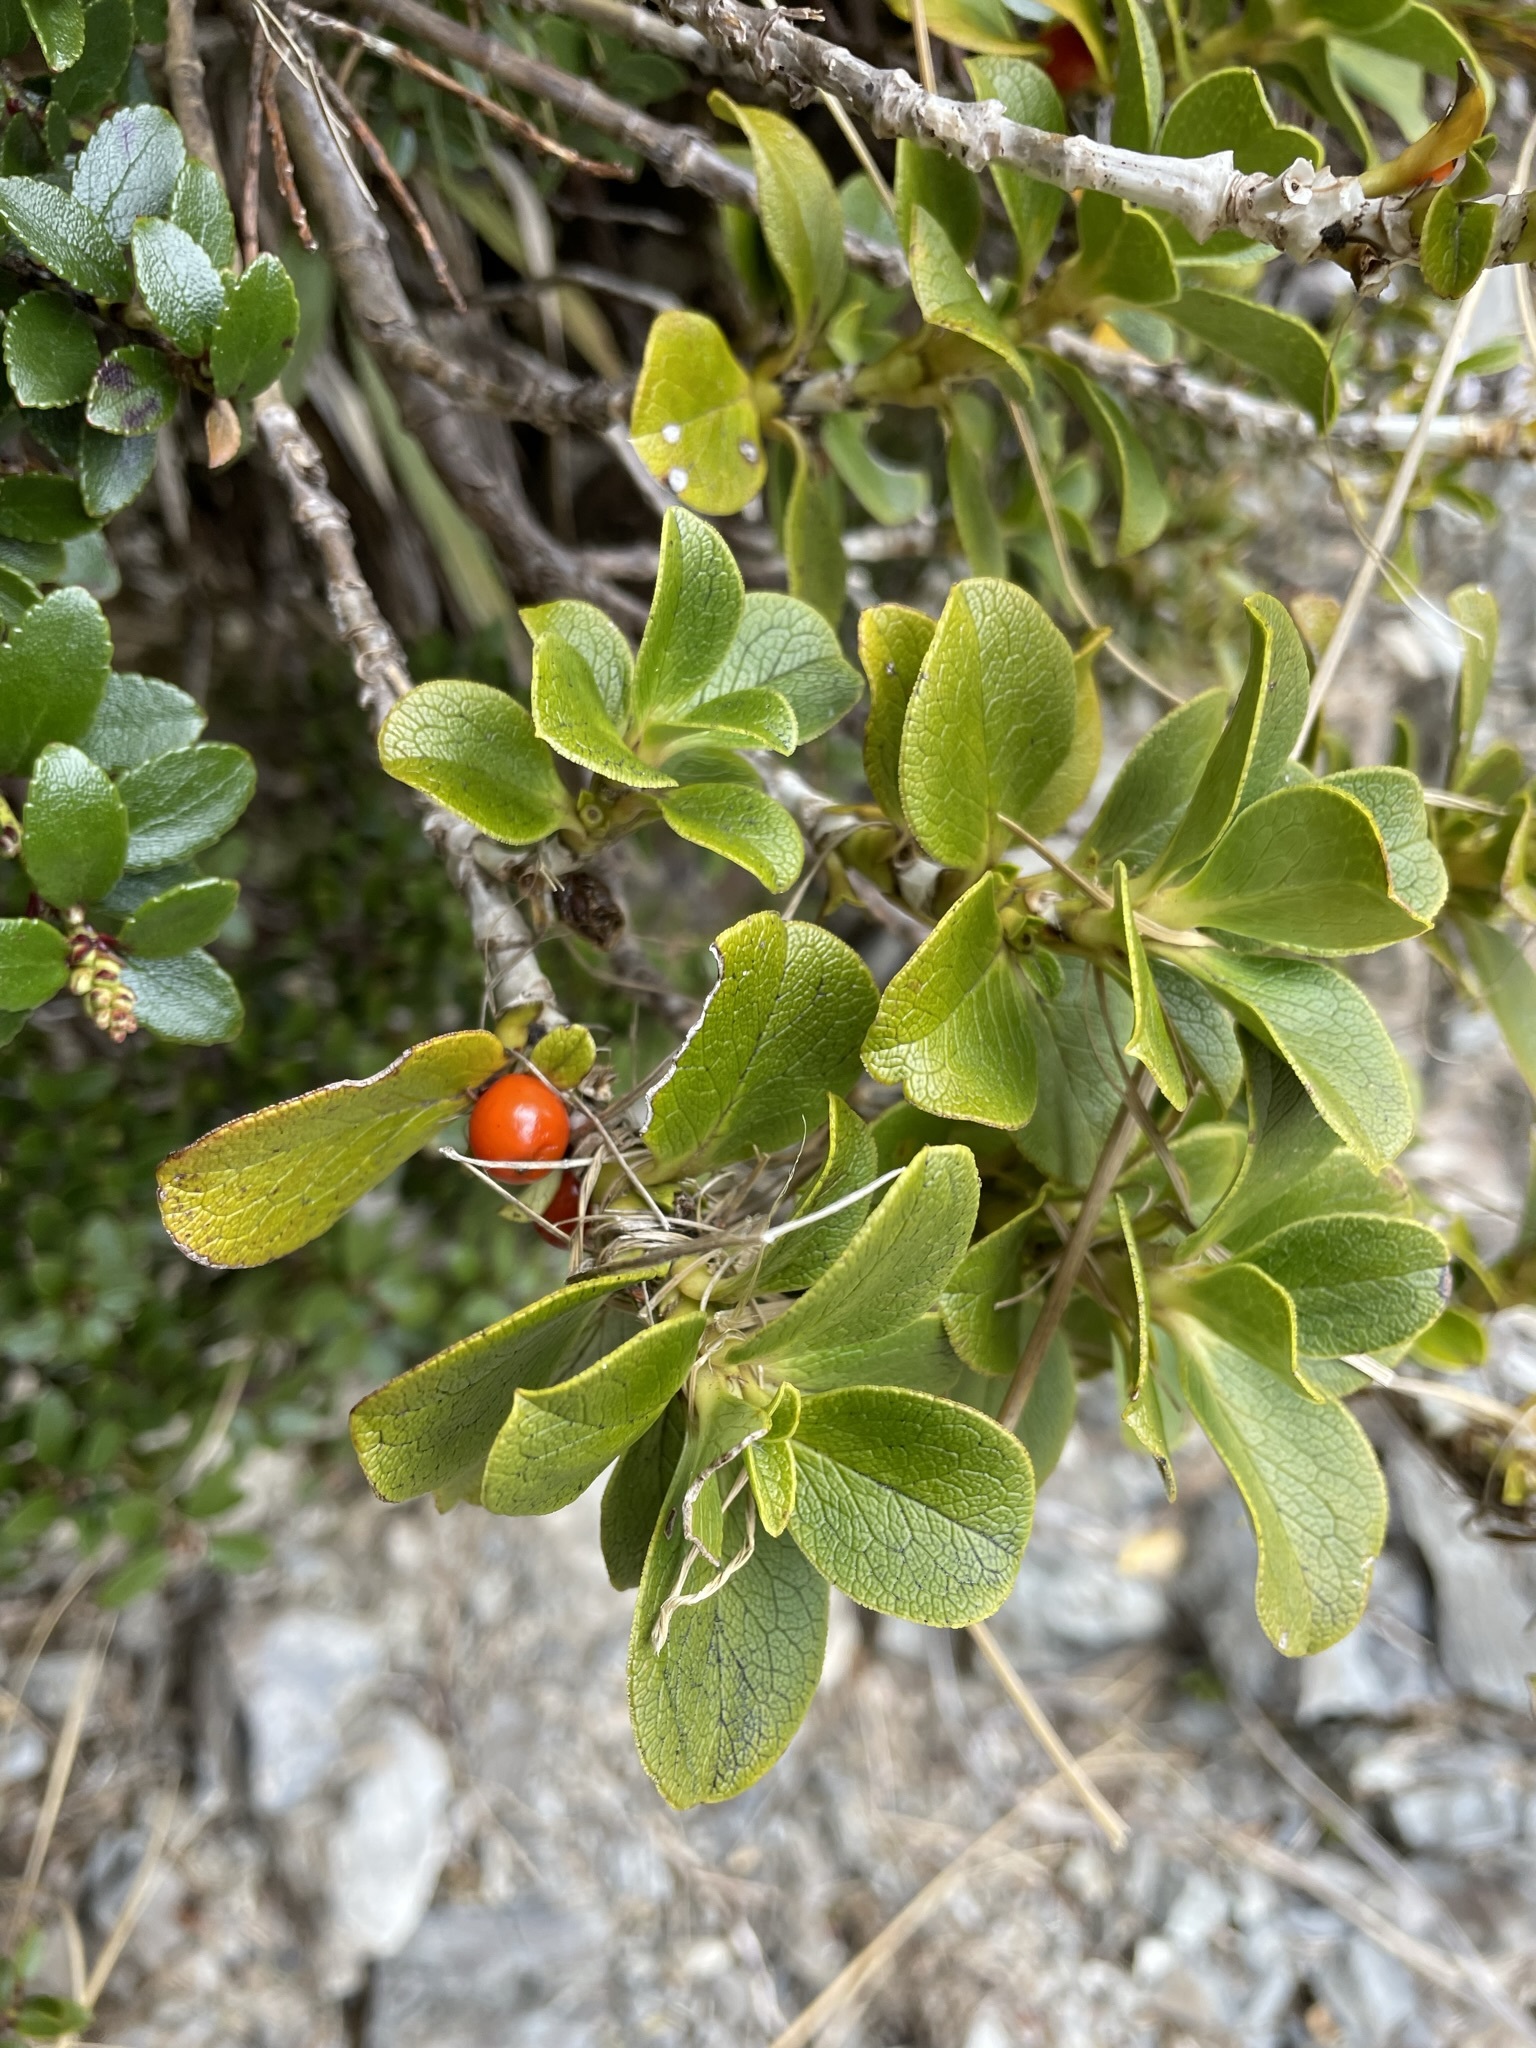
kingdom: Plantae
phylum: Tracheophyta
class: Magnoliopsida
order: Gentianales
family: Rubiaceae
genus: Coprosma
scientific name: Coprosma serrulata
